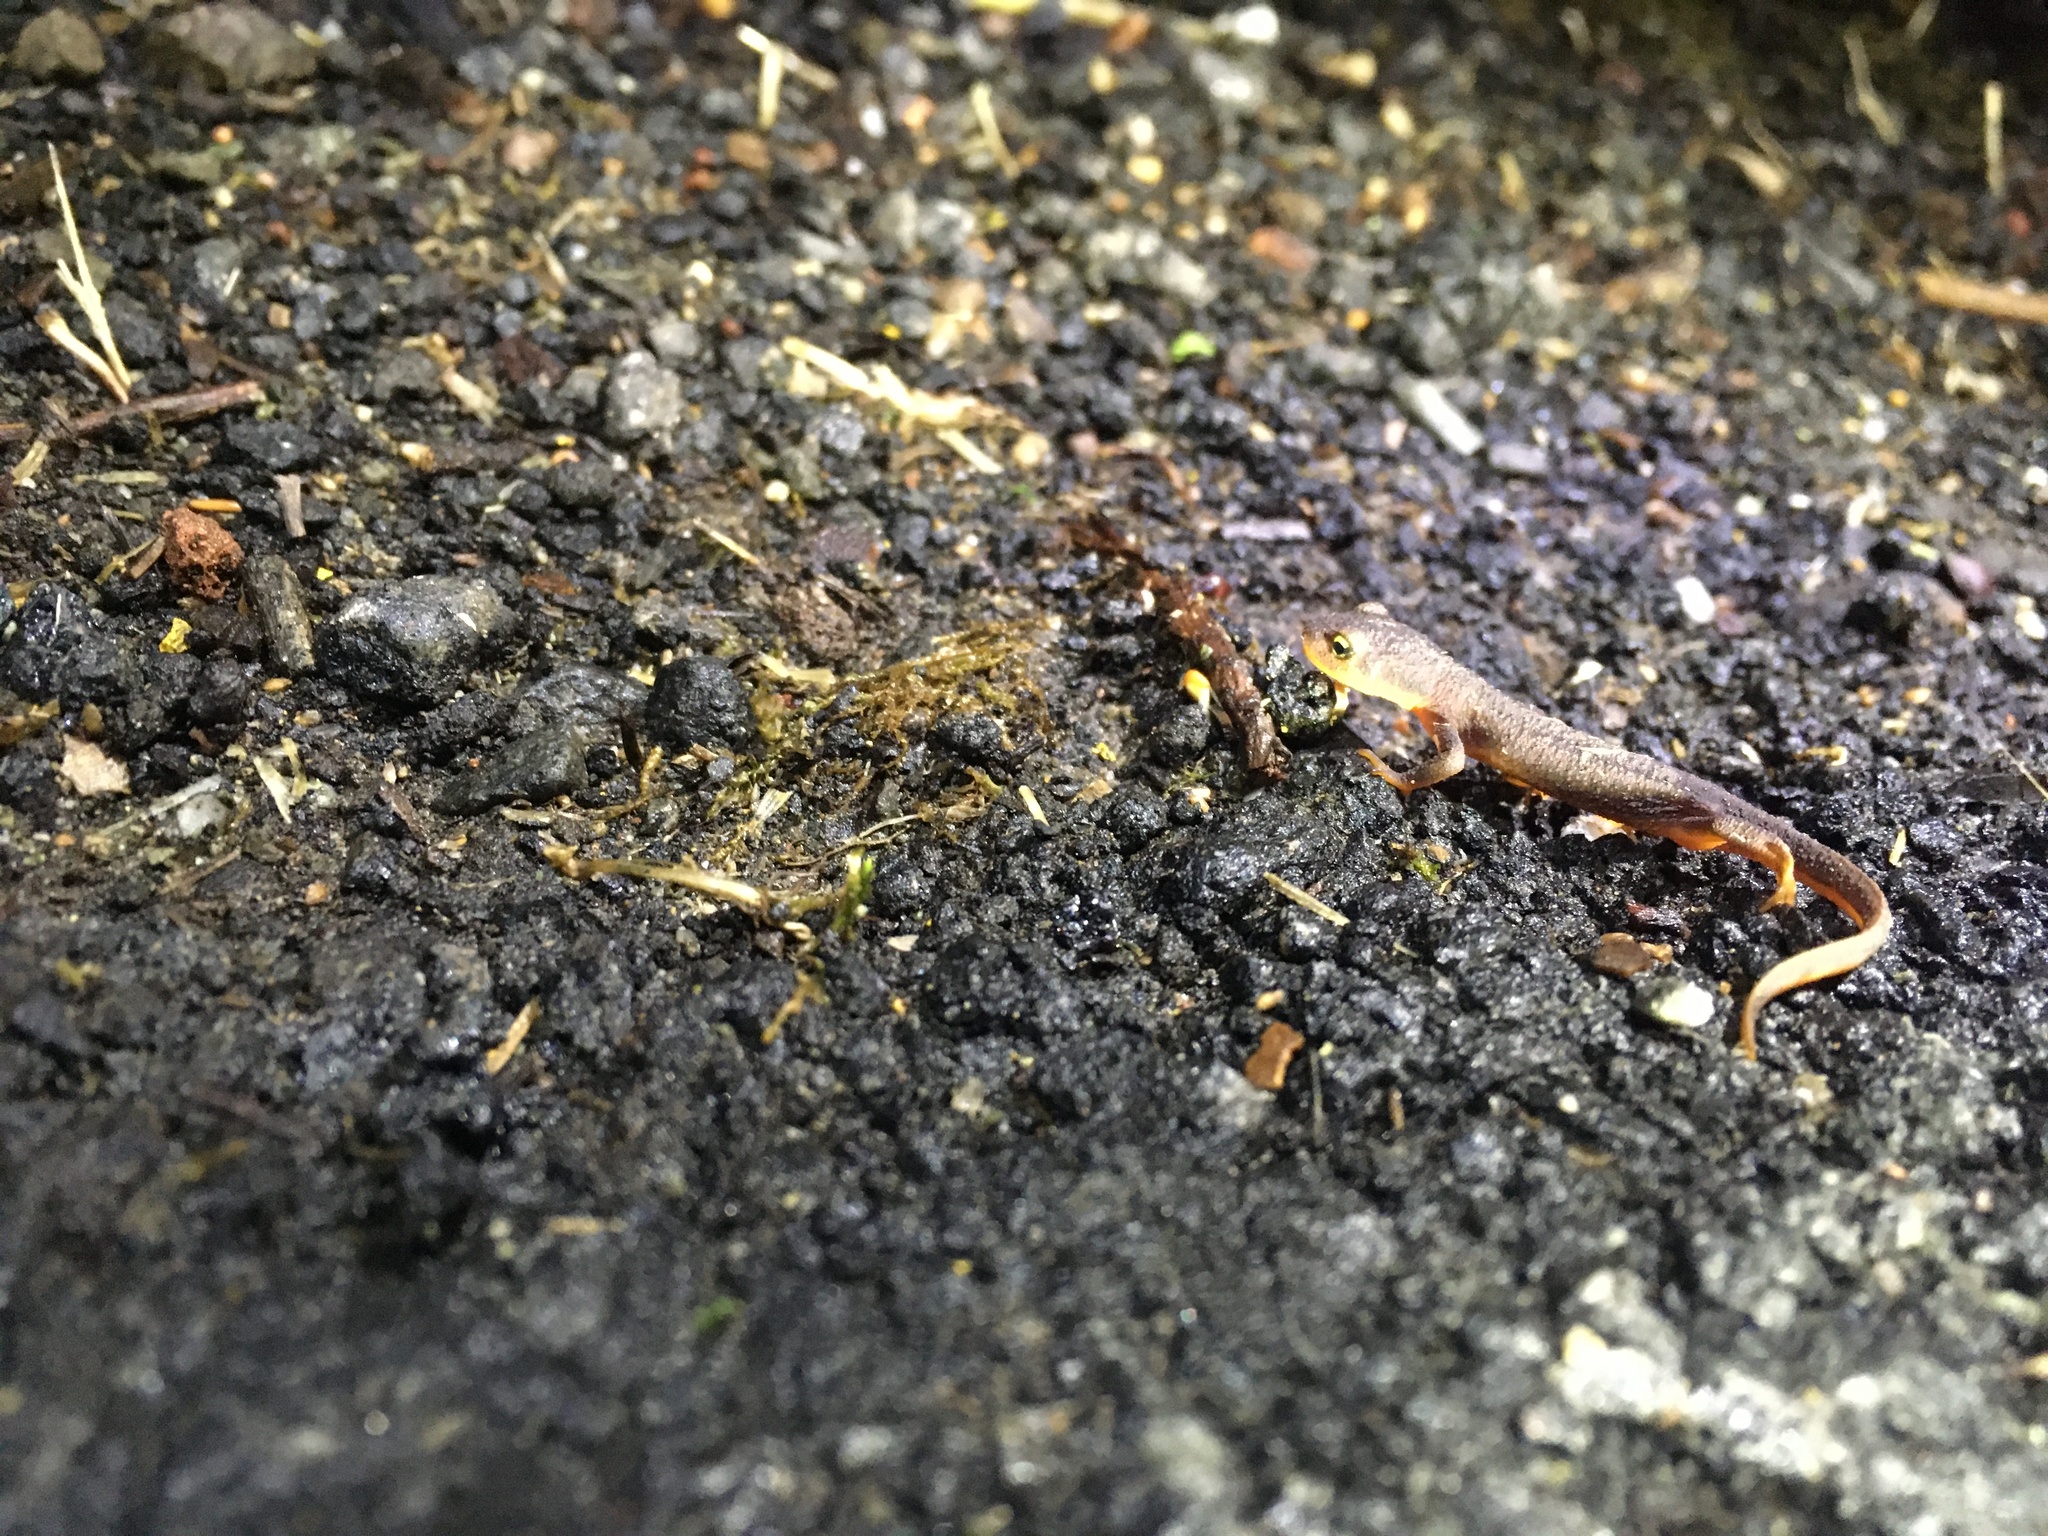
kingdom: Animalia
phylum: Chordata
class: Amphibia
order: Caudata
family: Salamandridae
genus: Taricha
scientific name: Taricha torosa
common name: California newt
